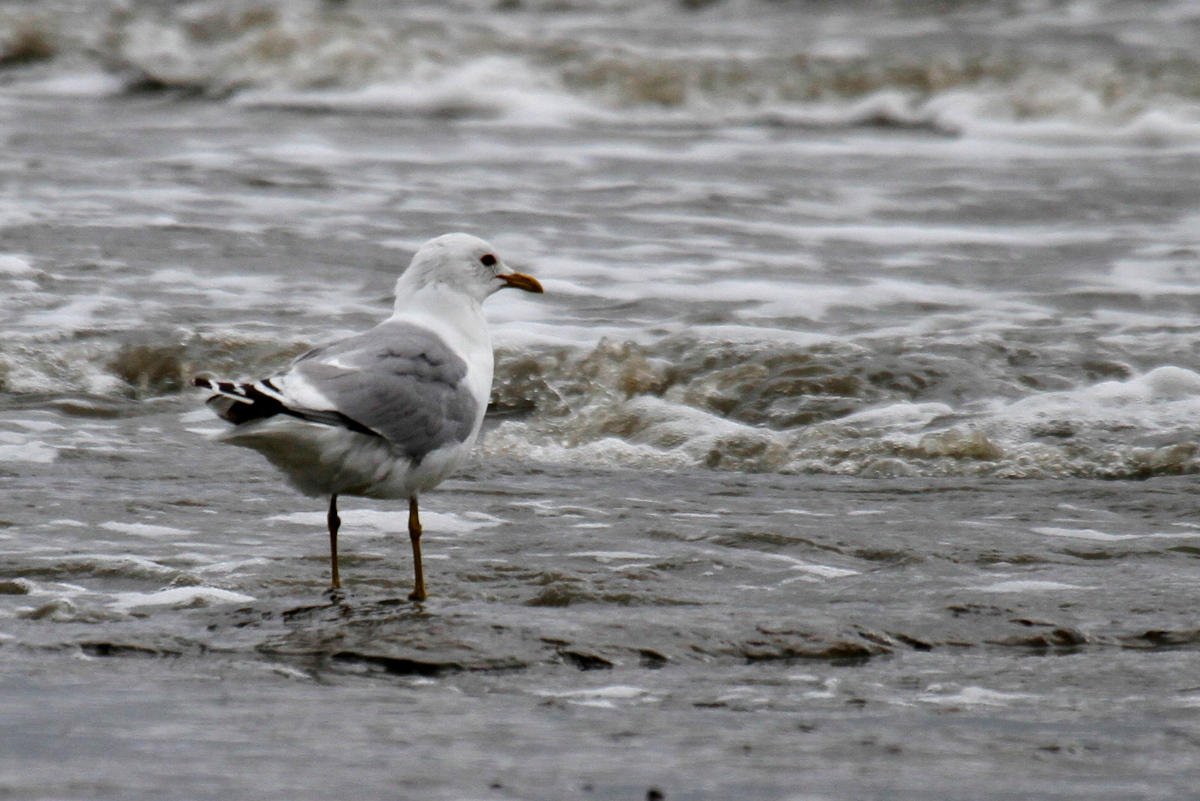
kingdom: Animalia
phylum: Chordata
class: Aves
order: Charadriiformes
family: Laridae
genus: Larus
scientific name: Larus brachyrhynchus
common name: Short-billed gull
